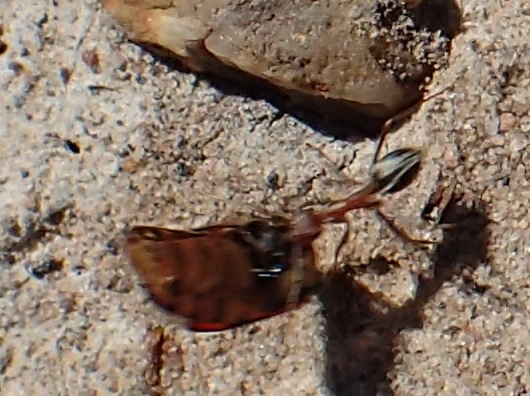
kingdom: Animalia
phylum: Arthropoda
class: Insecta
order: Hymenoptera
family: Formicidae
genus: Anoplolepis
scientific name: Anoplolepis steingroeveri
